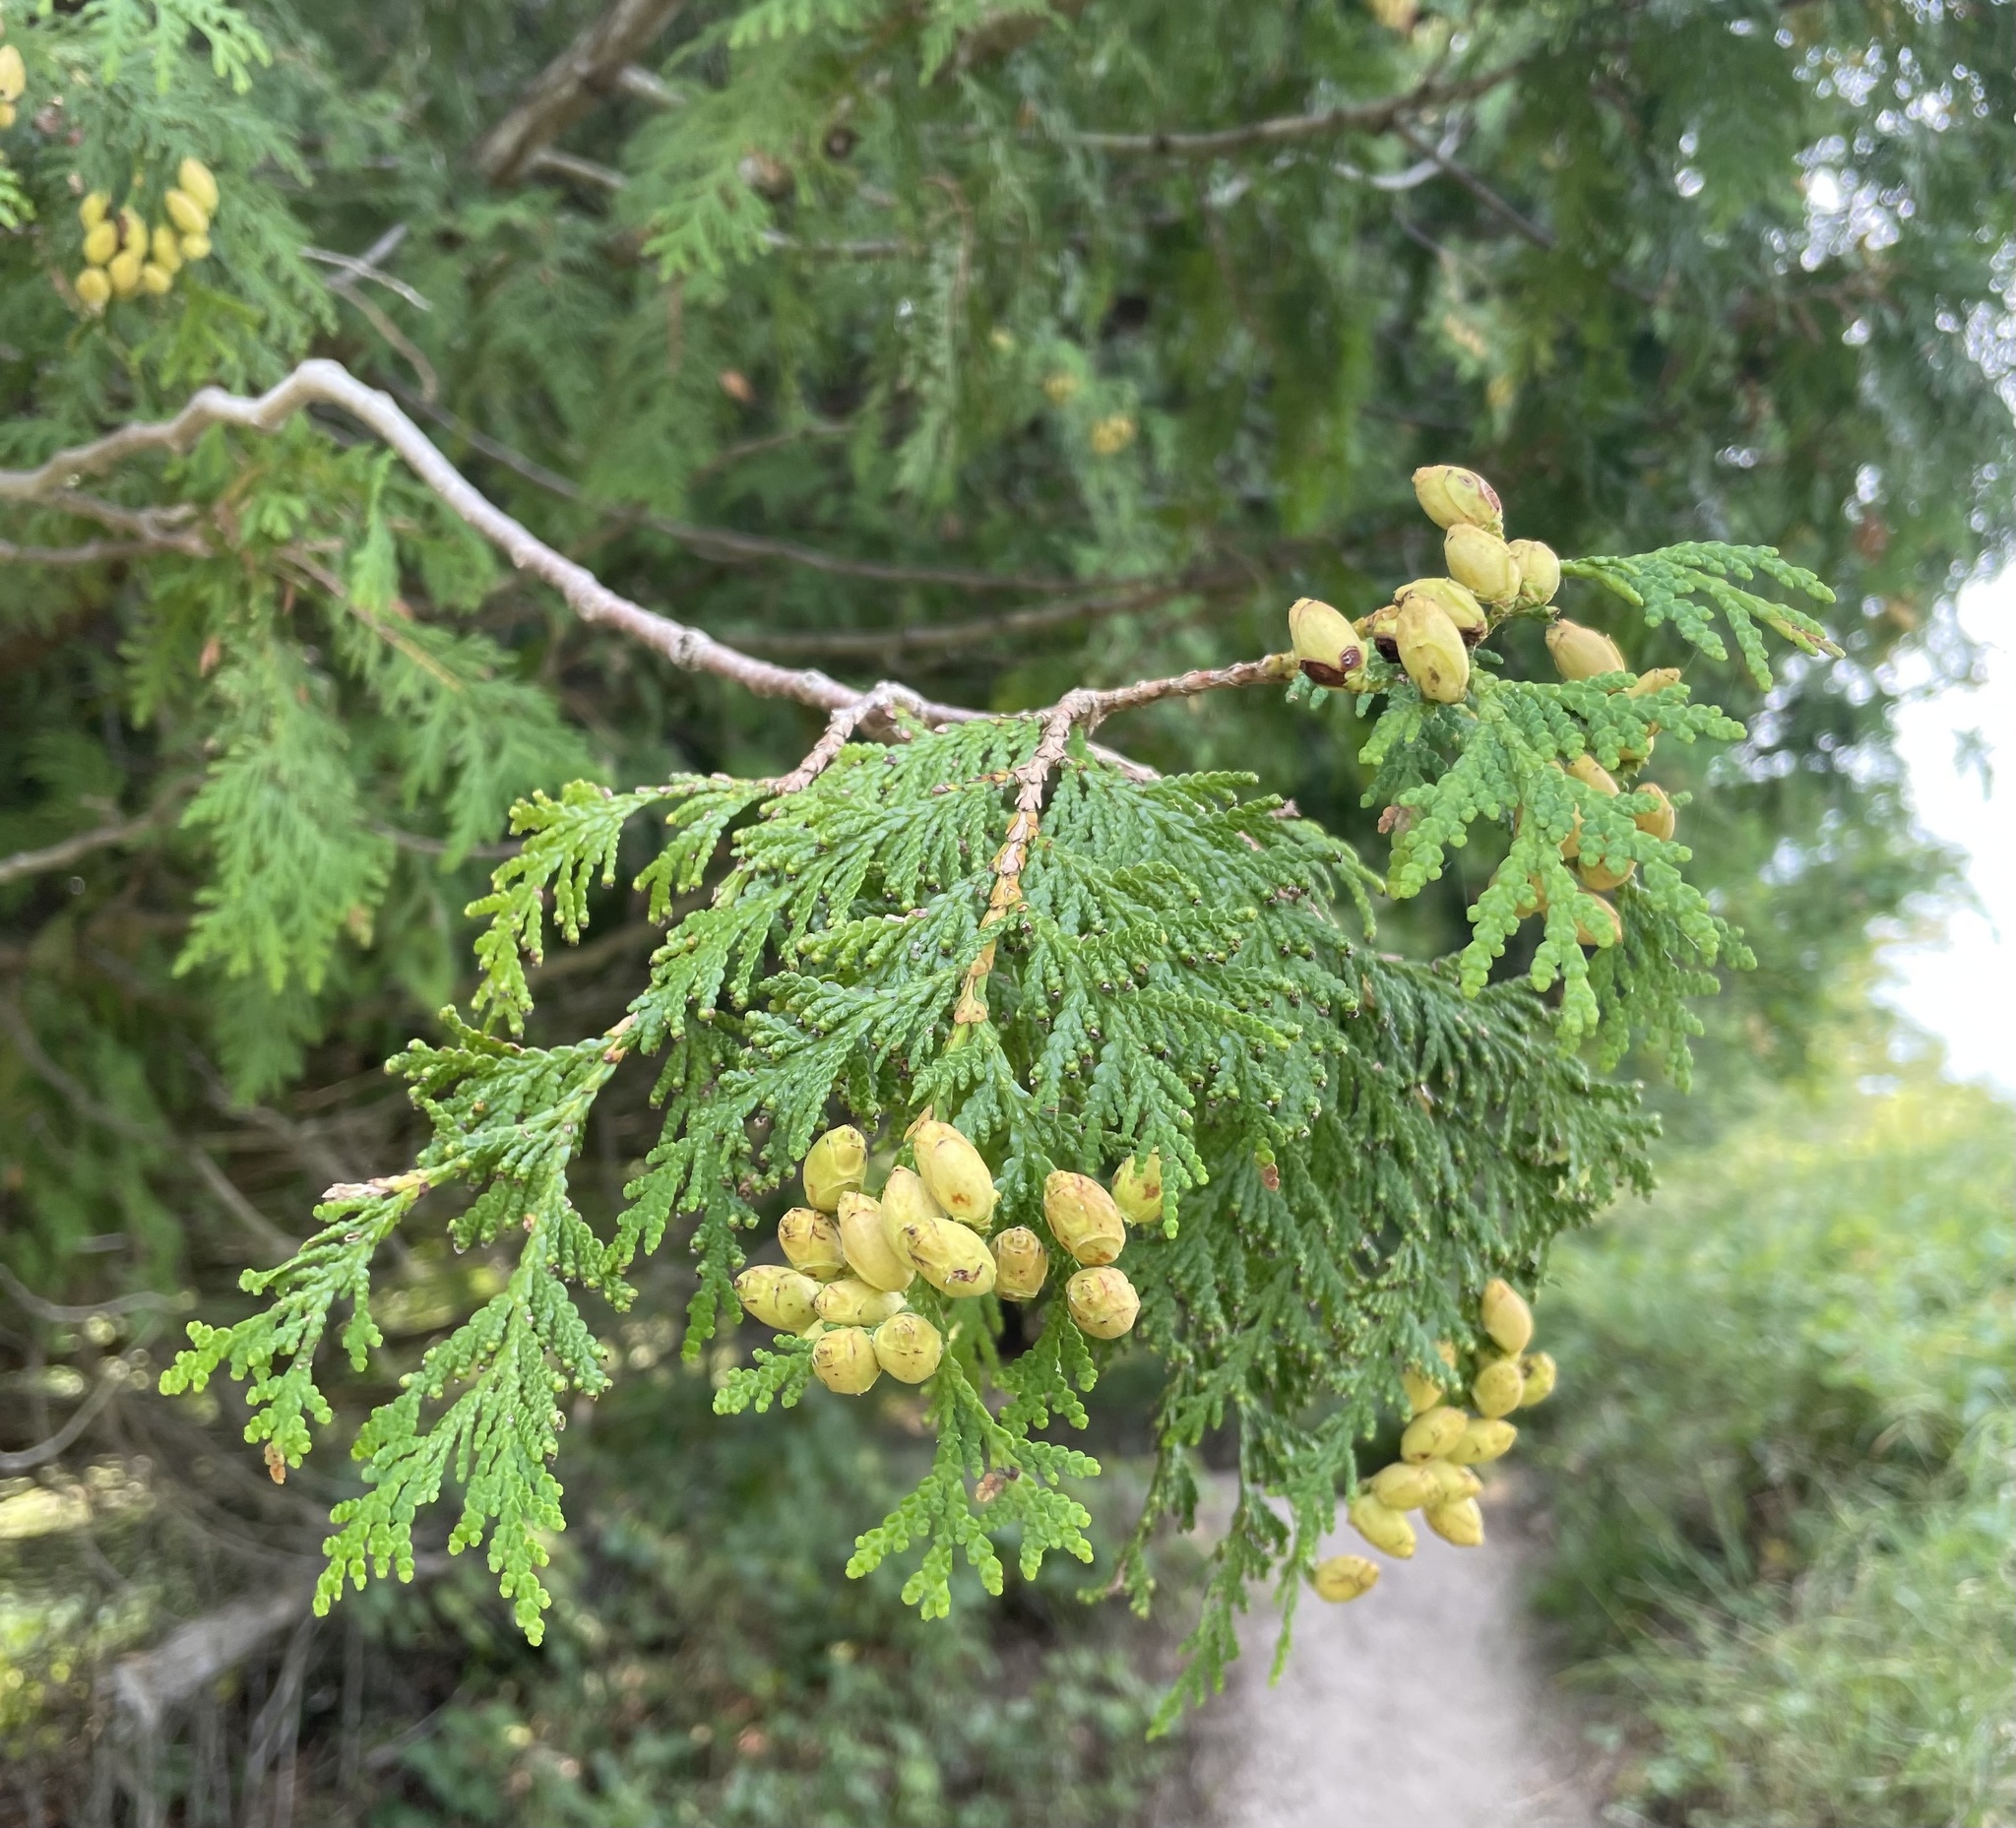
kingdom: Plantae
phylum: Tracheophyta
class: Pinopsida
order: Pinales
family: Cupressaceae
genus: Thuja
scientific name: Thuja occidentalis
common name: Northern white-cedar
